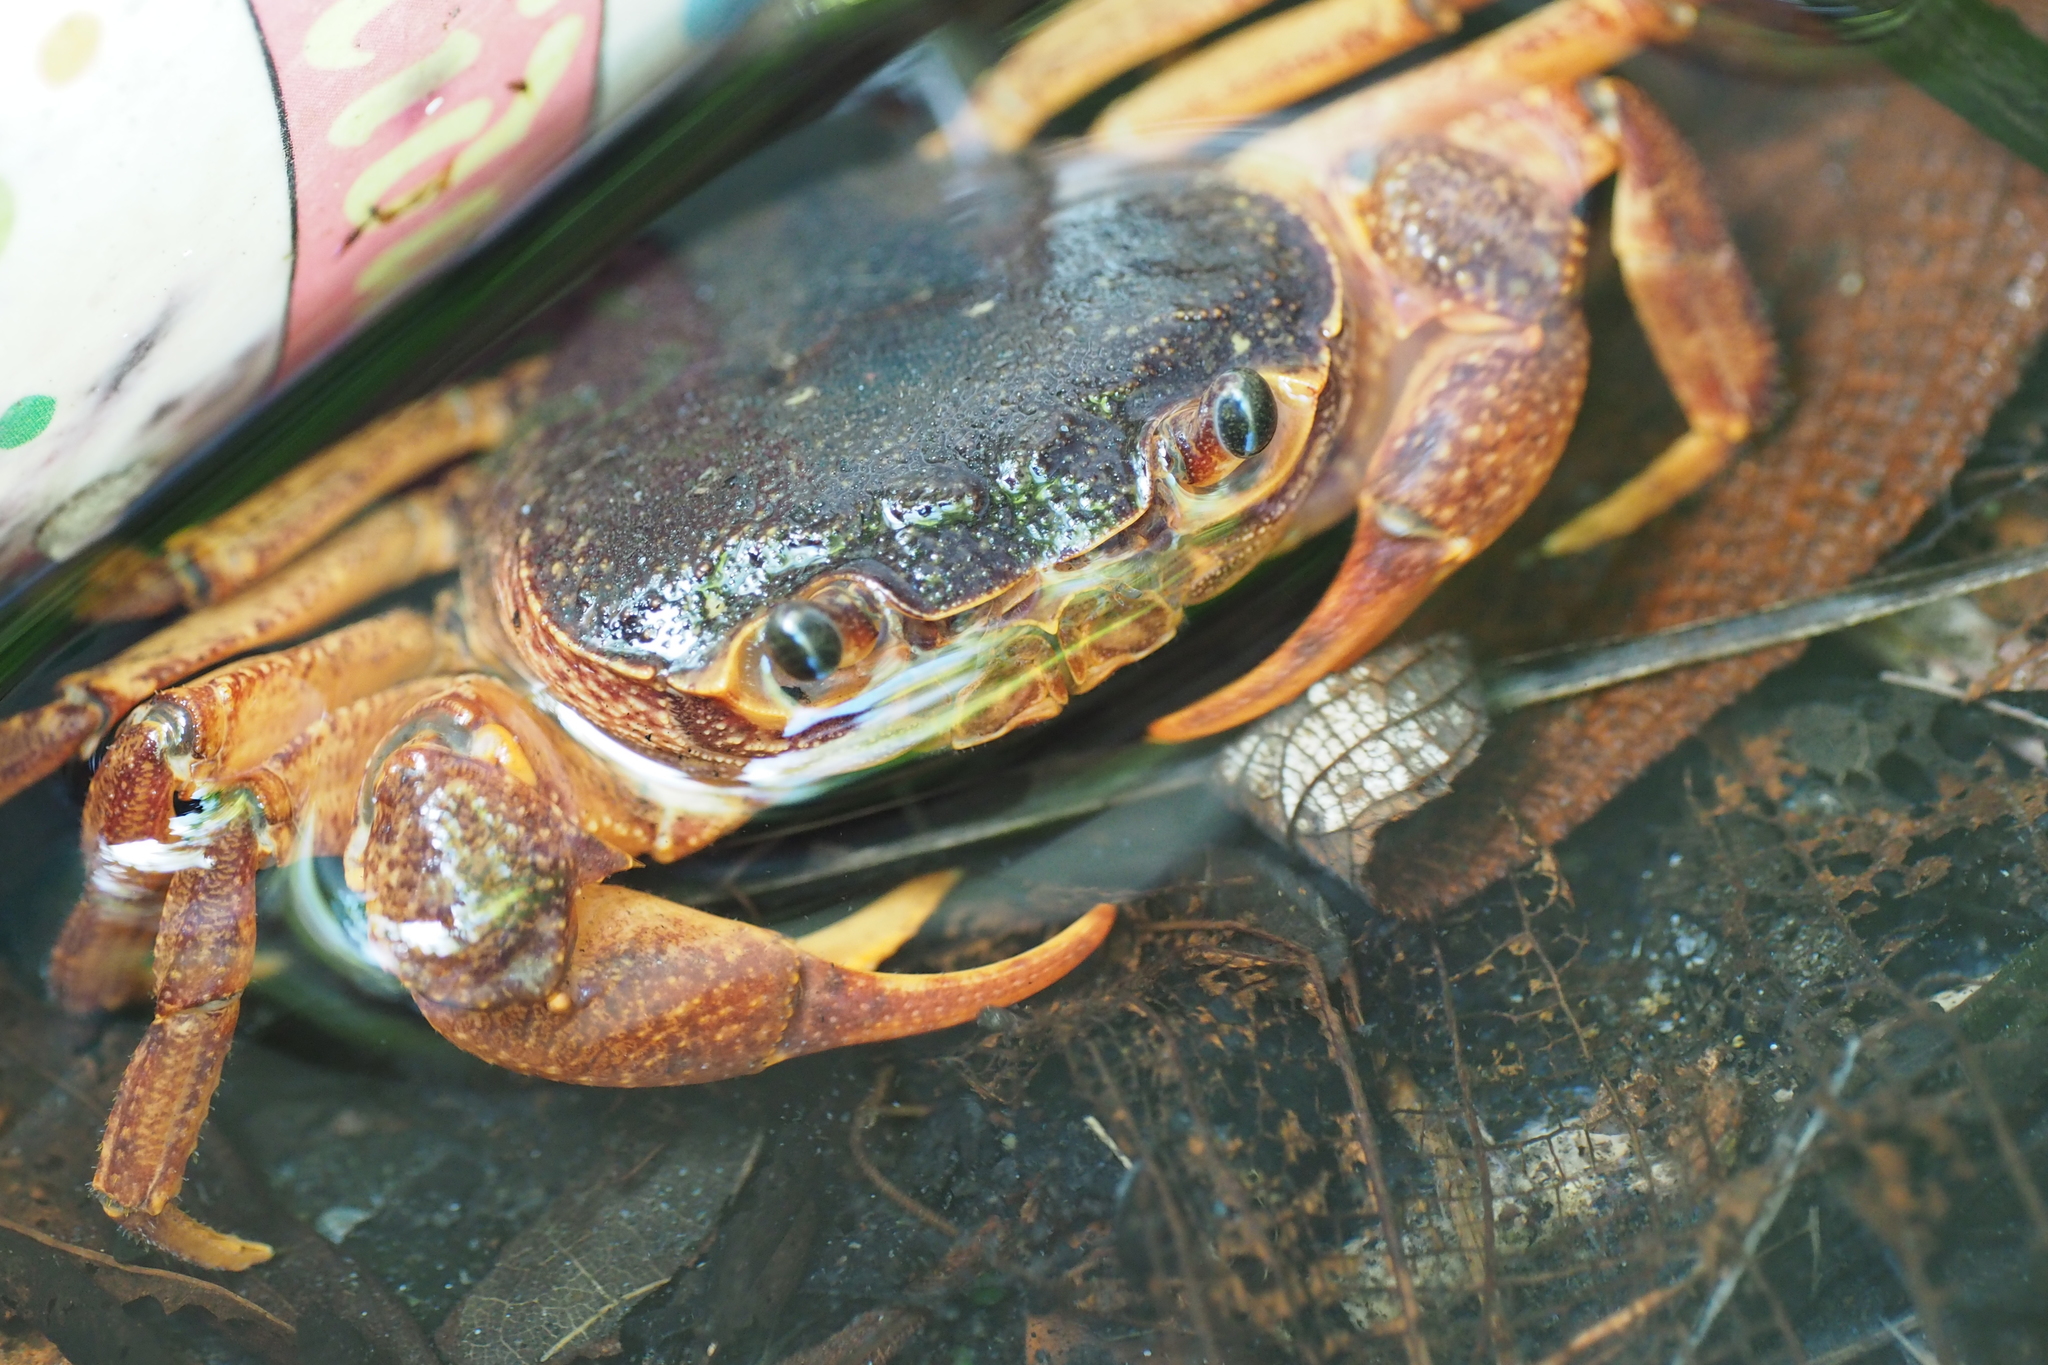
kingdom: Animalia
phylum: Arthropoda
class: Malacostraca
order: Decapoda
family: Potamidae
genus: Candidiopotamon
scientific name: Candidiopotamon rathbuni
